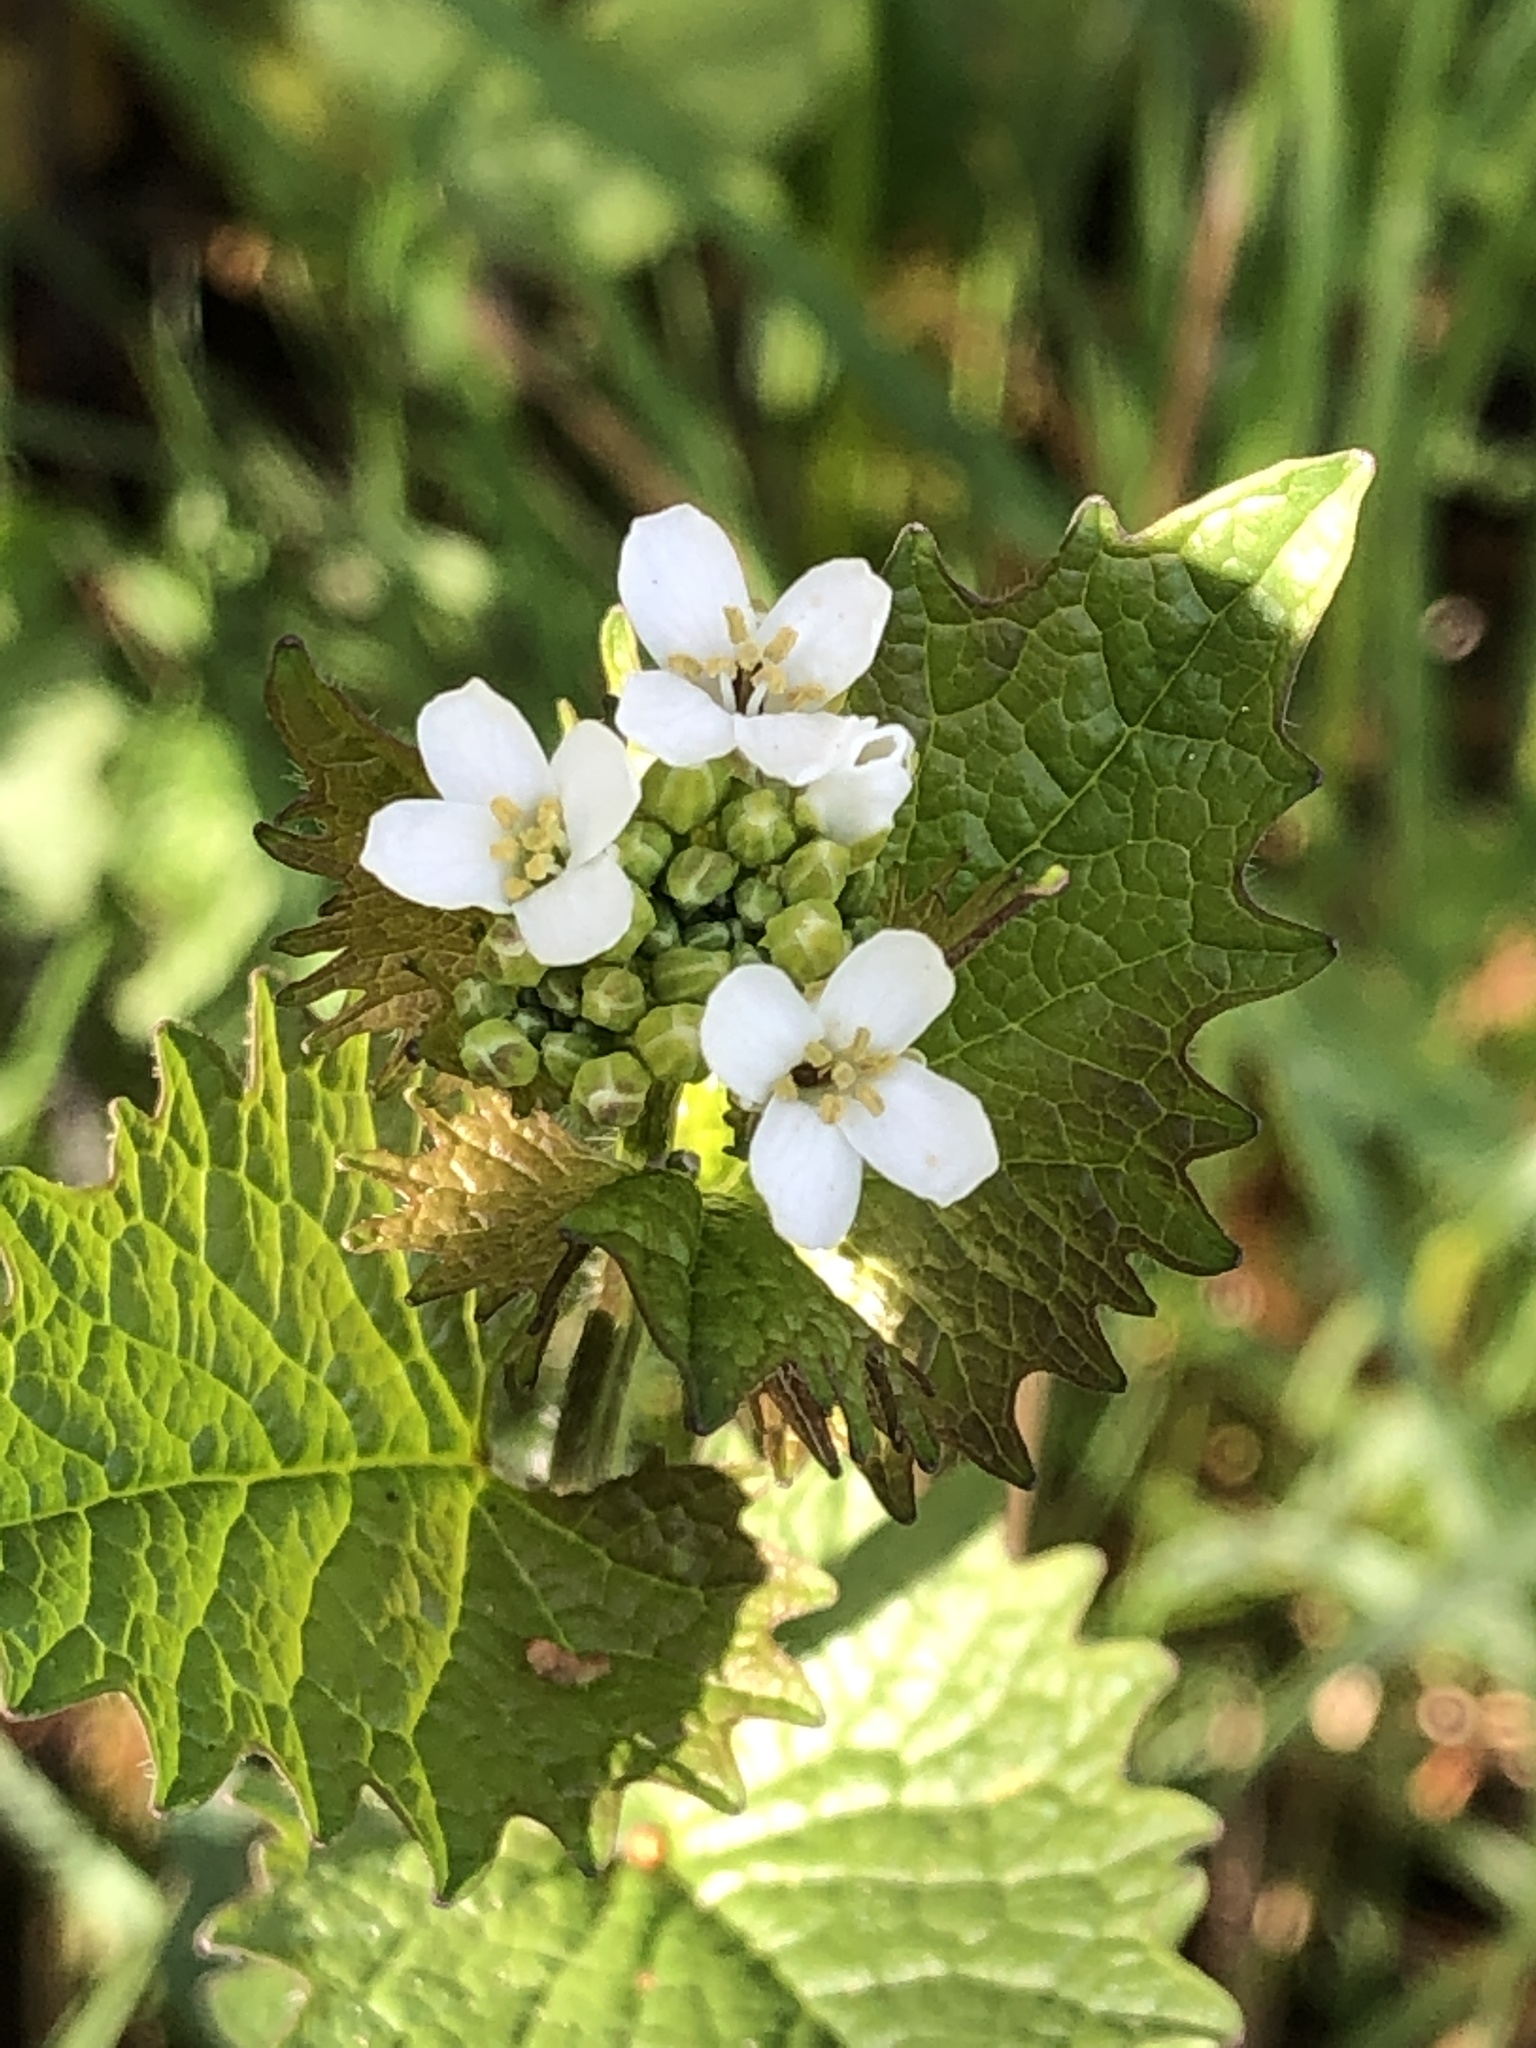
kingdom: Plantae
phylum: Tracheophyta
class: Magnoliopsida
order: Brassicales
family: Brassicaceae
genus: Alliaria
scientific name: Alliaria petiolata
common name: Garlic mustard
